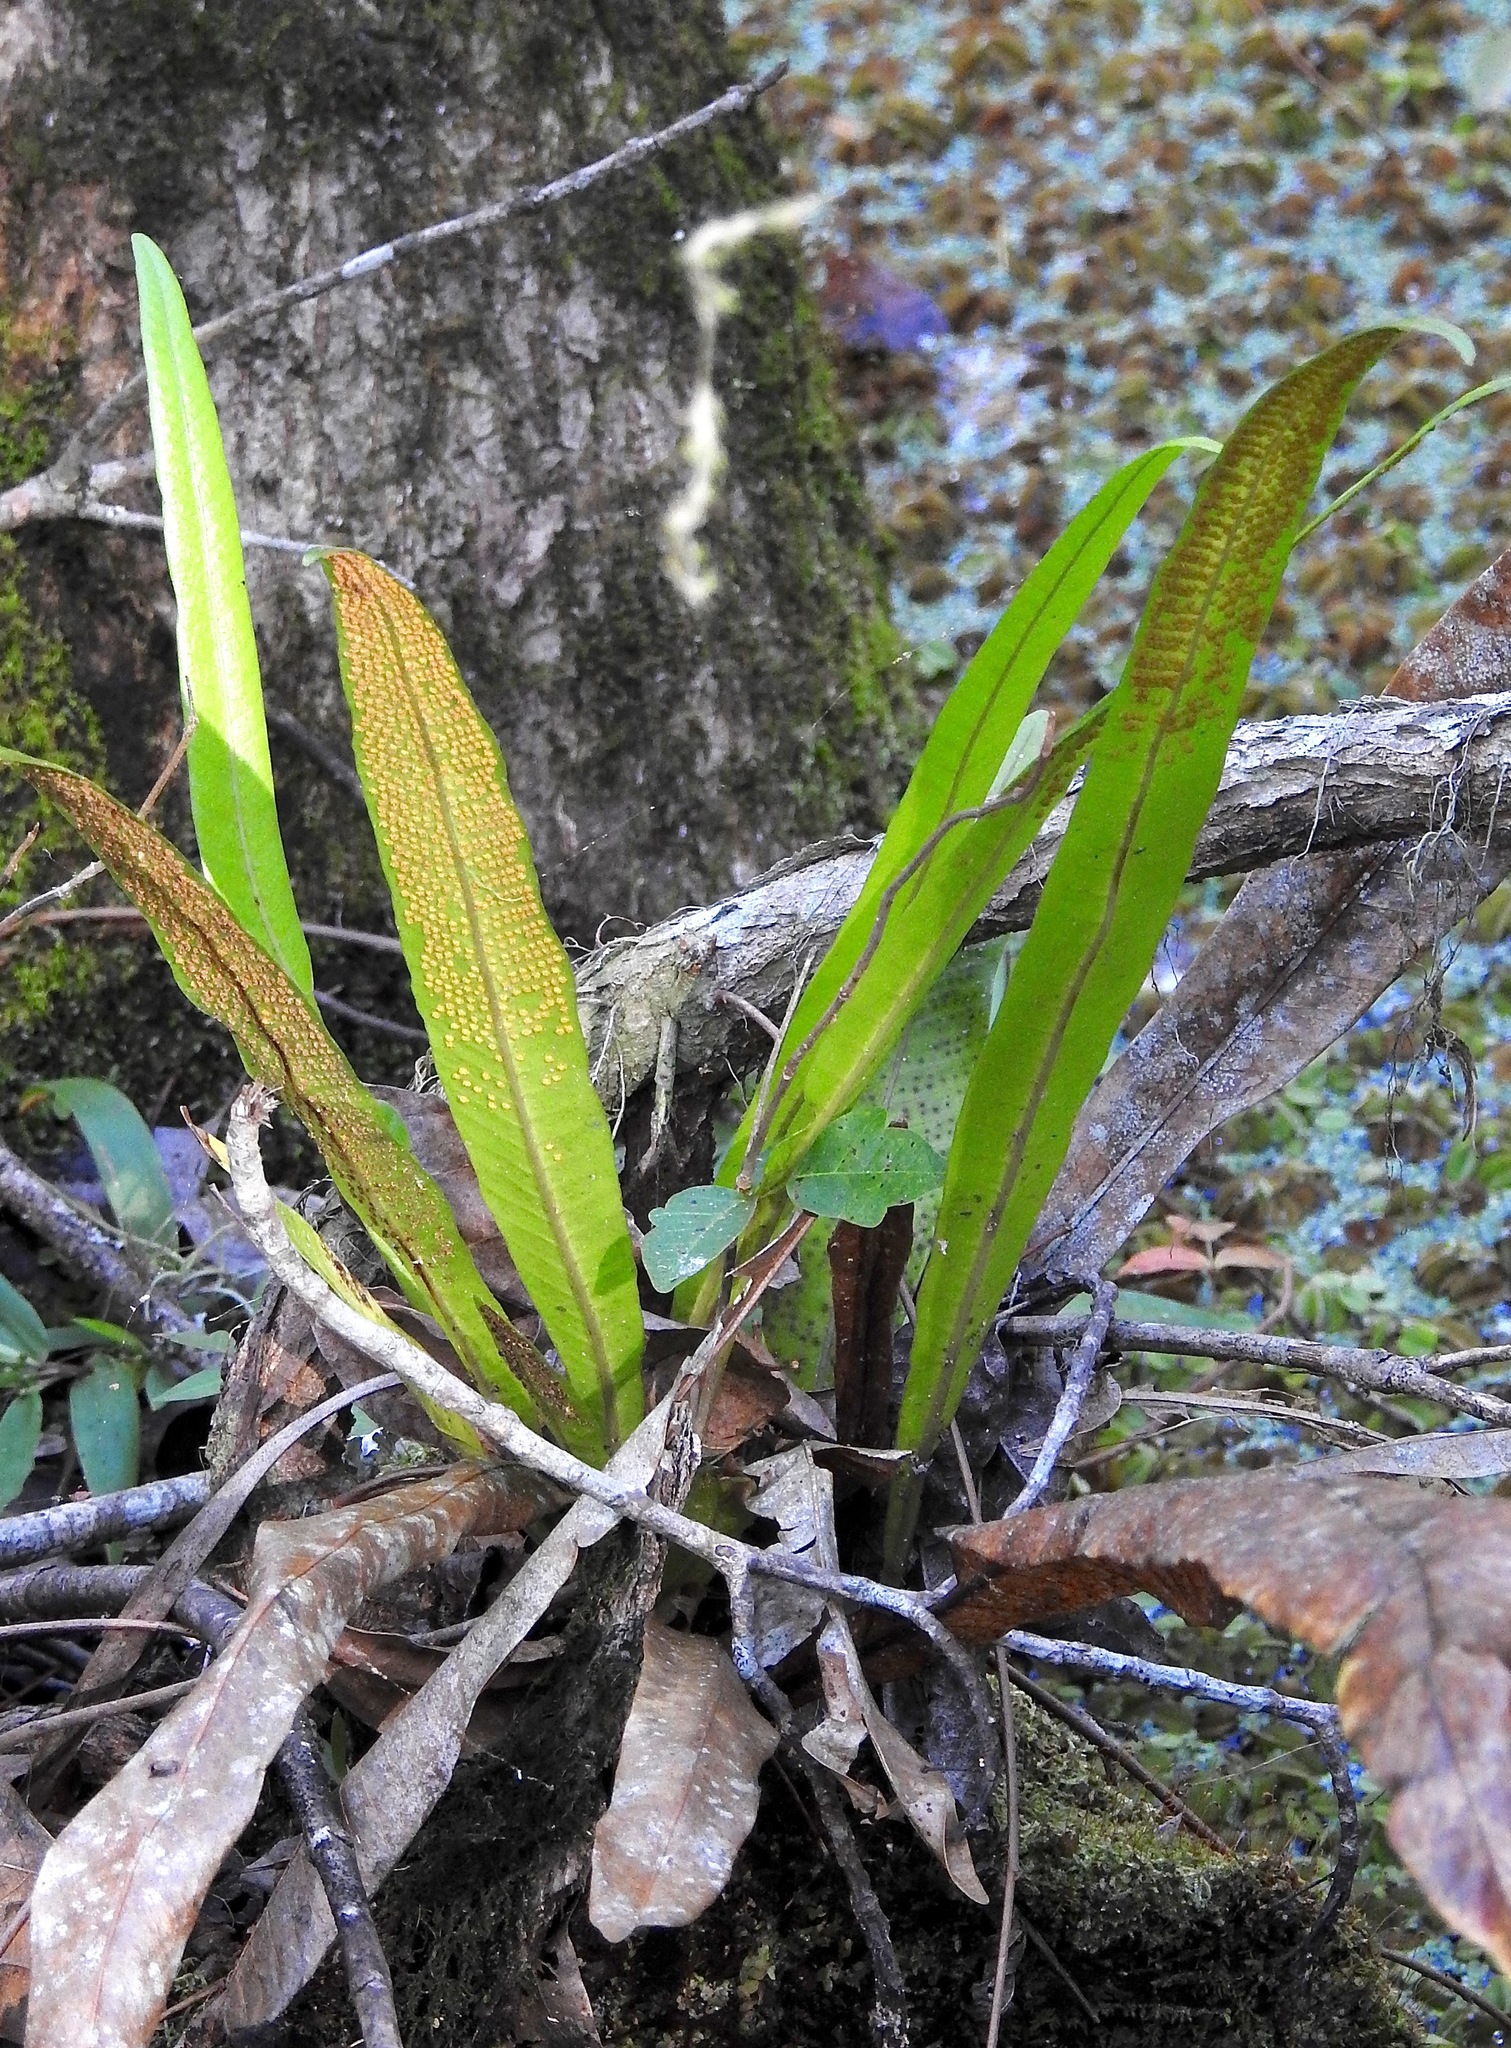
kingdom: Plantae
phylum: Tracheophyta
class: Polypodiopsida
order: Polypodiales
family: Polypodiaceae
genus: Campyloneurum
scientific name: Campyloneurum phyllitidis
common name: Cow-tongue fern
